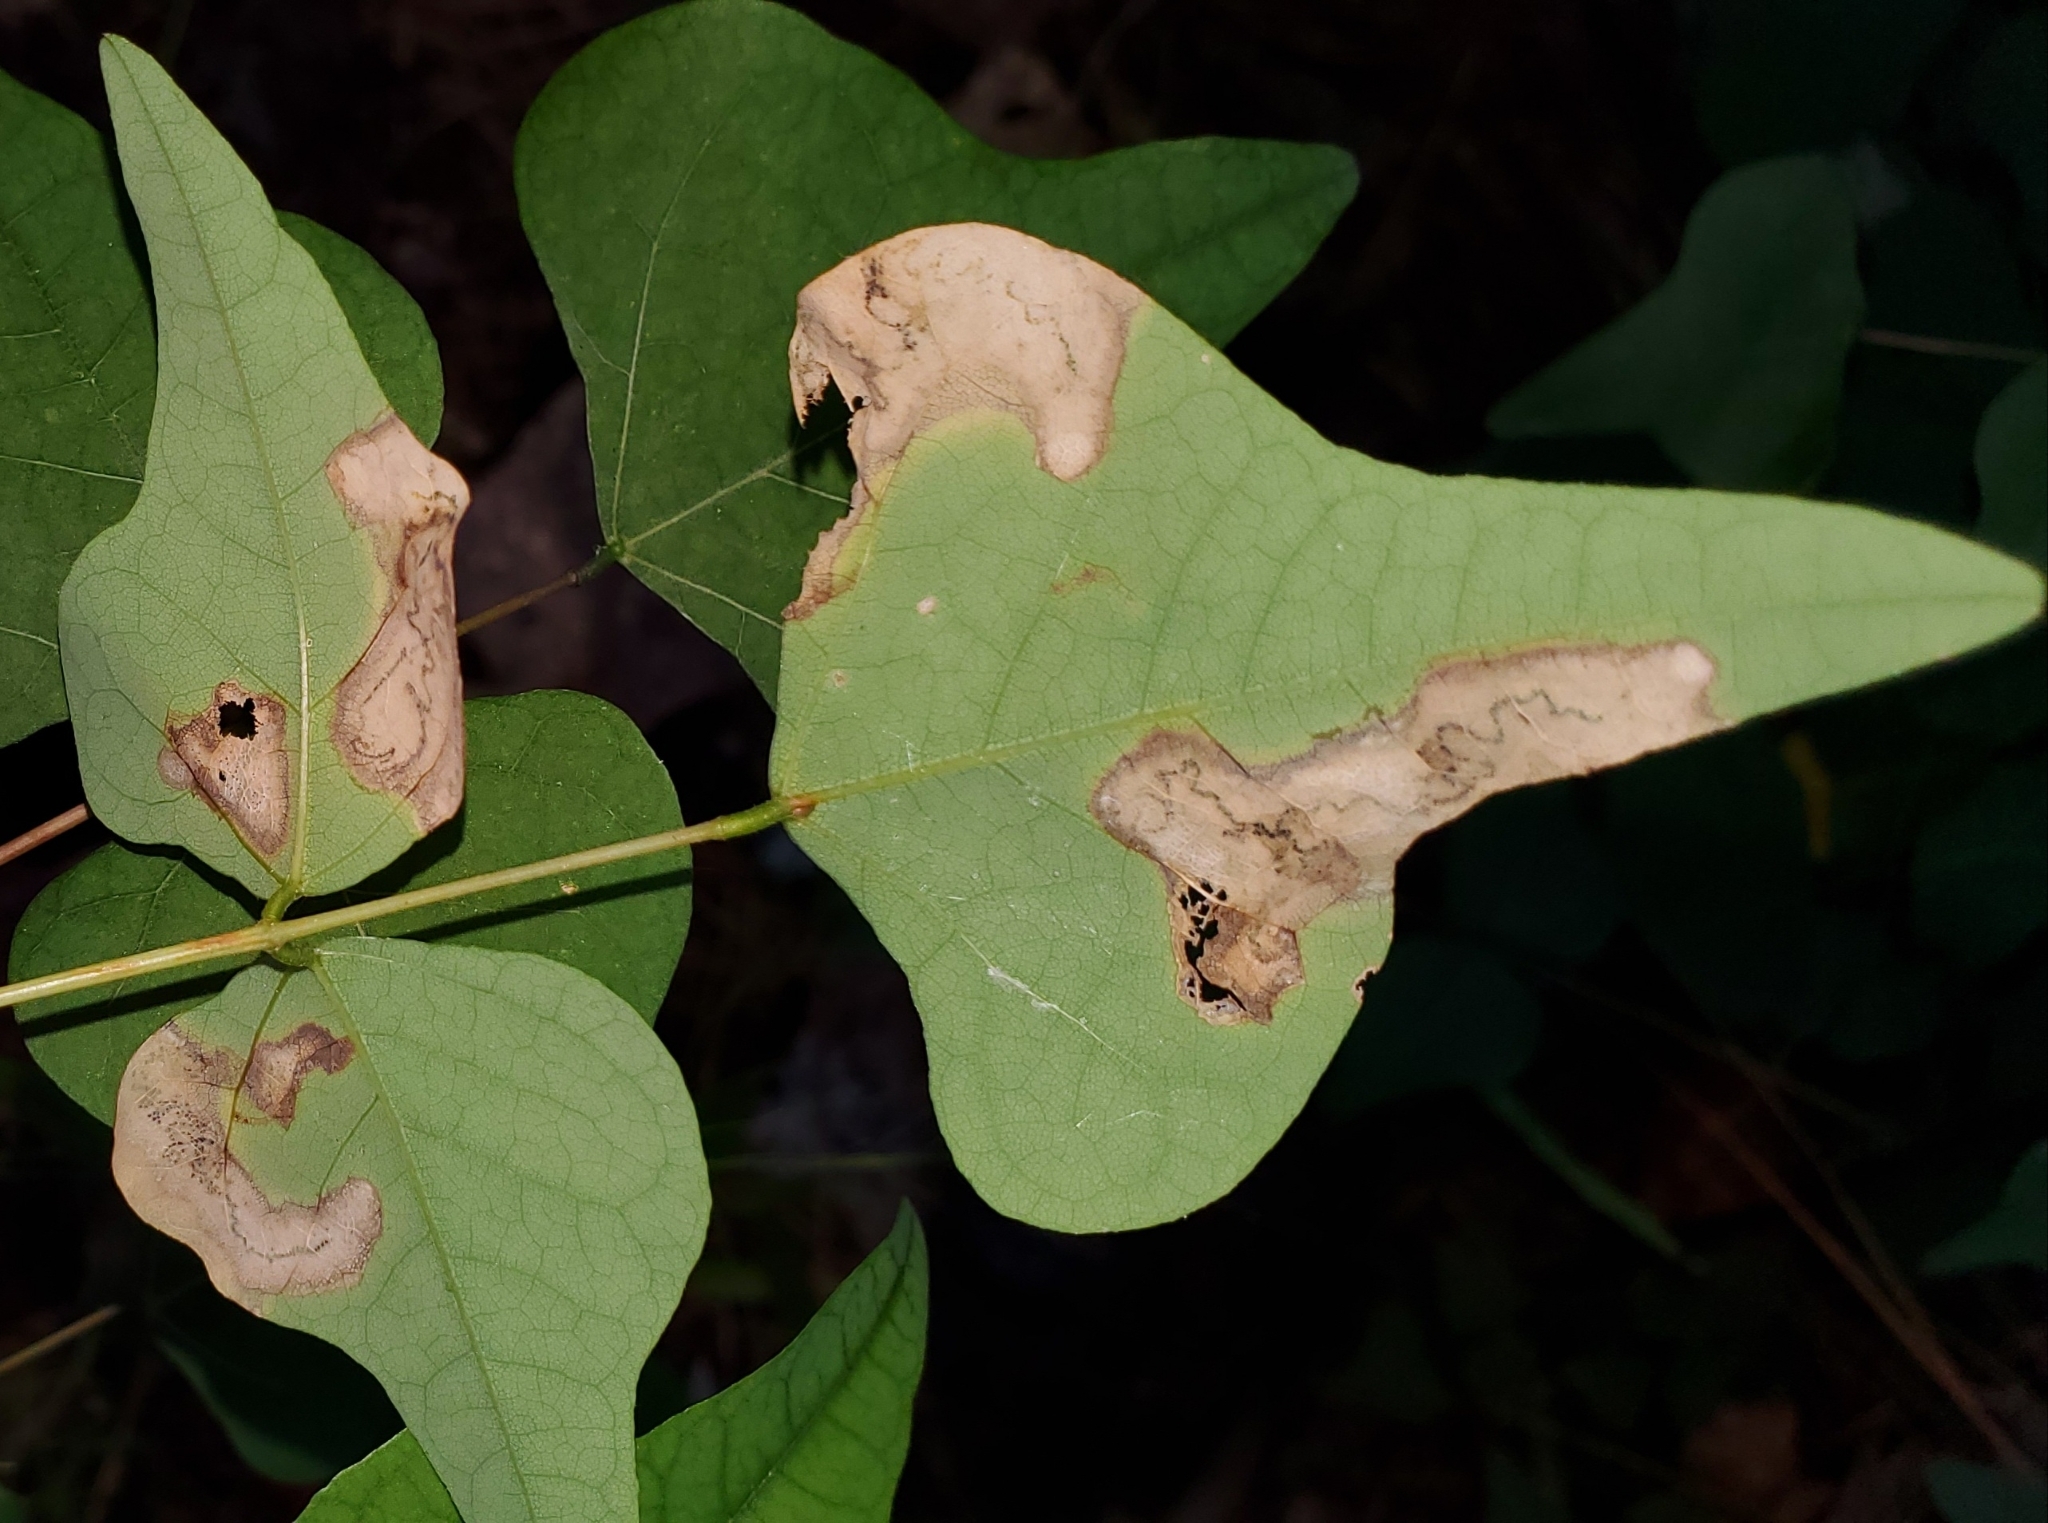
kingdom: Animalia
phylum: Arthropoda
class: Insecta
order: Lepidoptera
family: Lyonetiidae
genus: Leucoptera
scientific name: Leucoptera erythrinella
